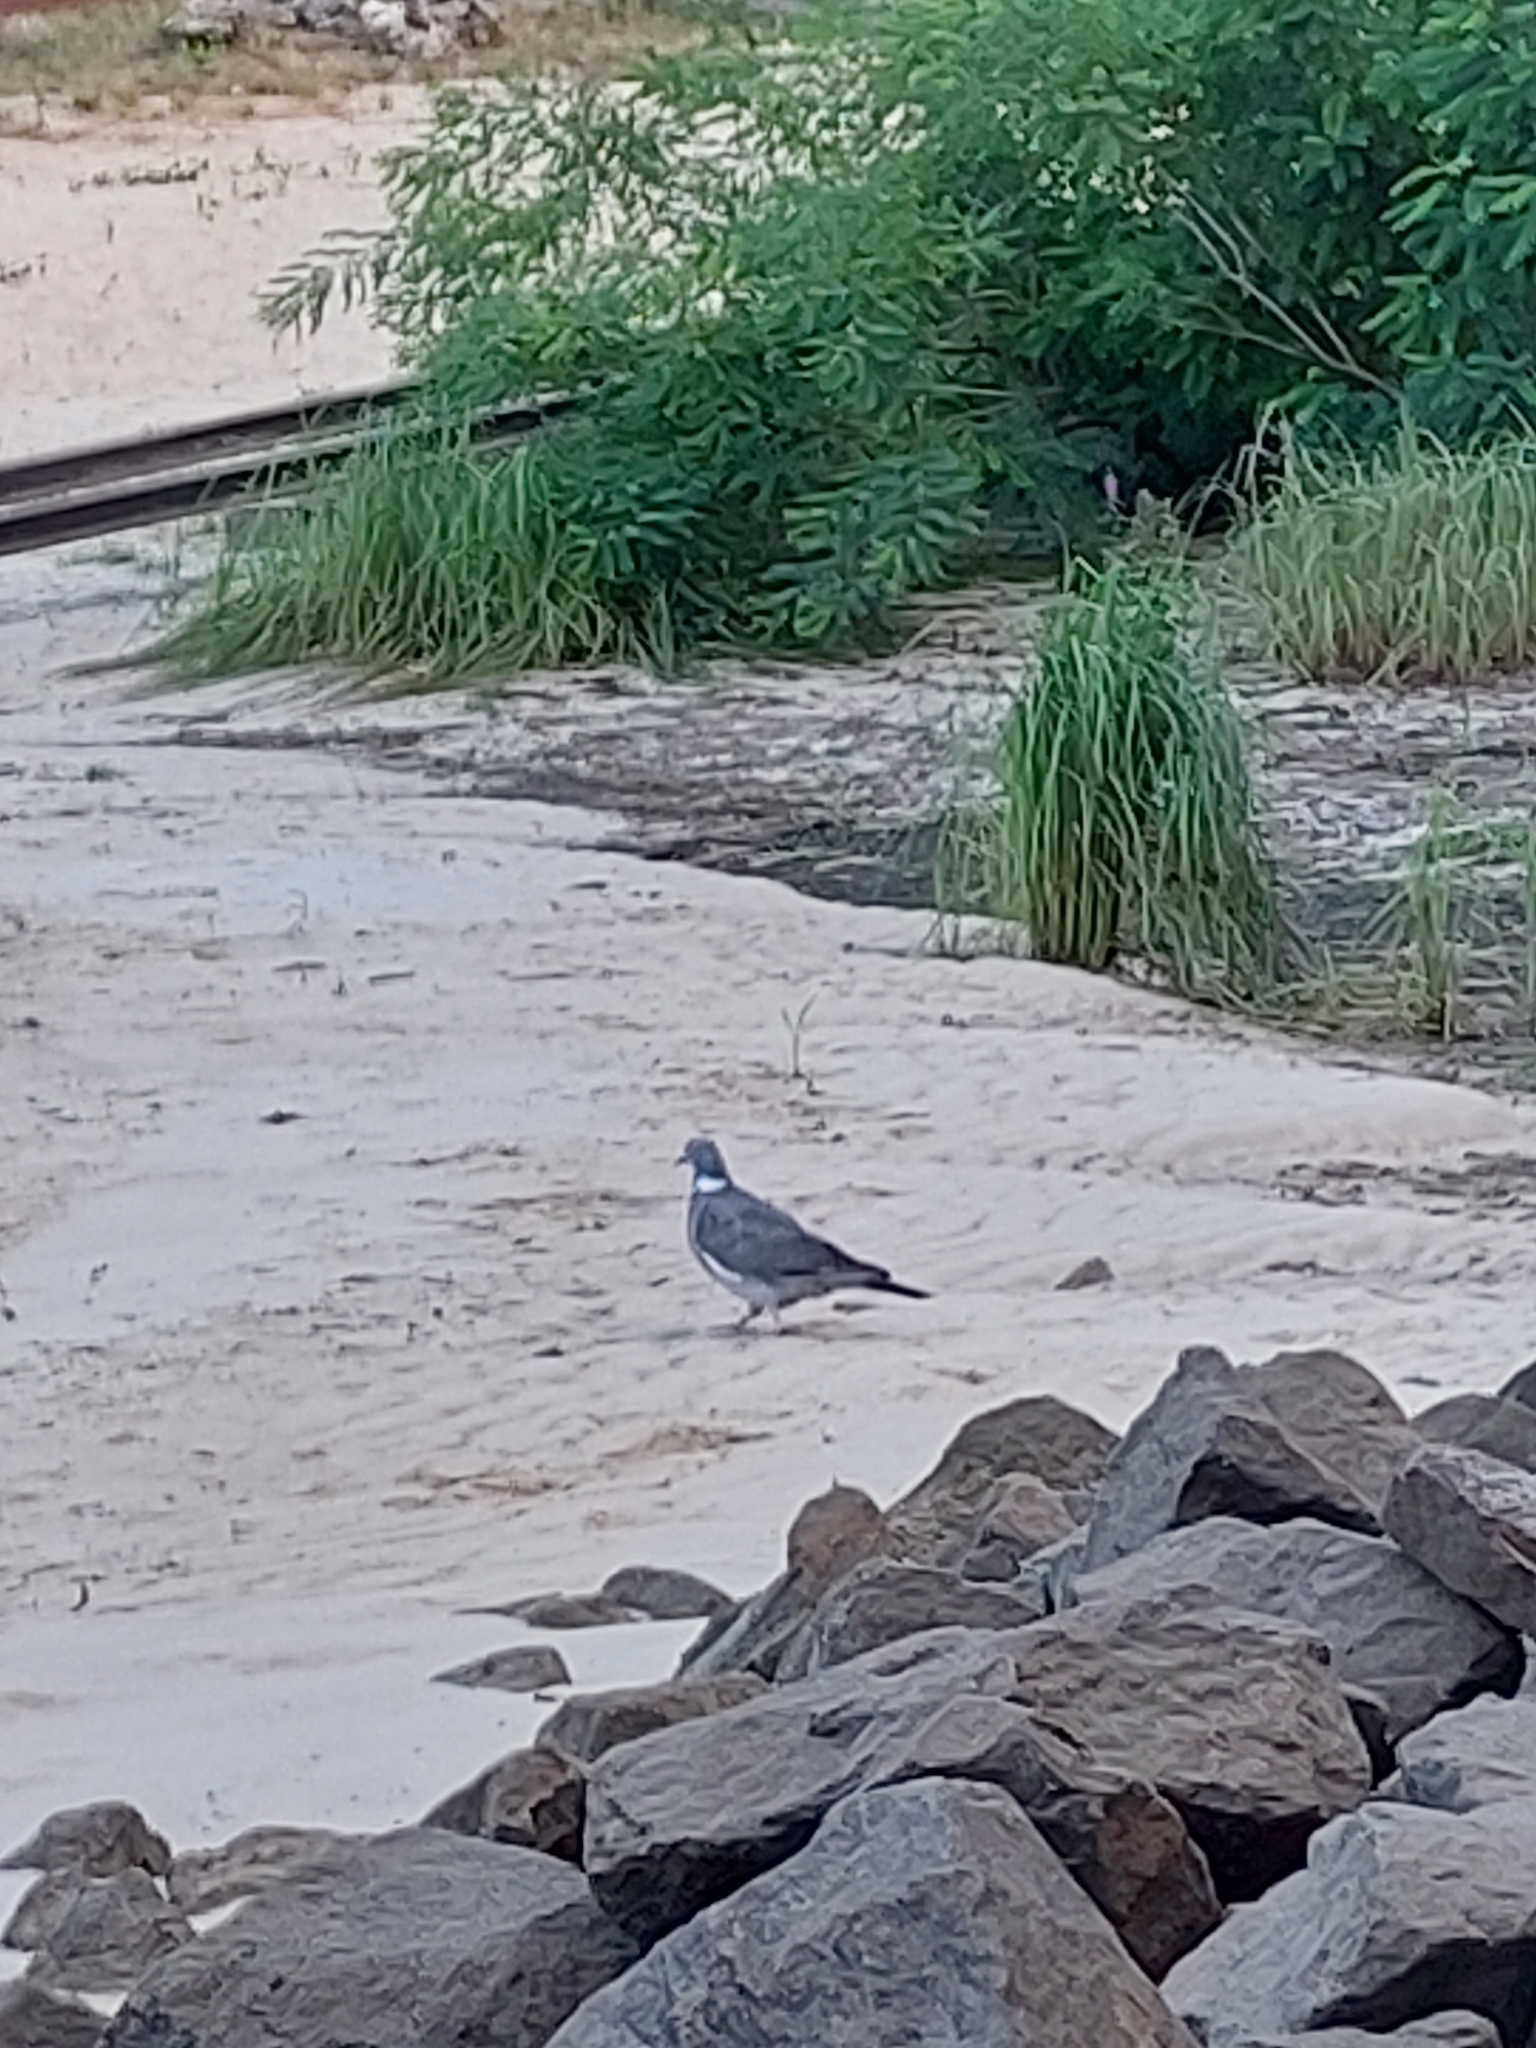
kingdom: Animalia
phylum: Chordata
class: Aves
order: Columbiformes
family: Columbidae
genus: Columba
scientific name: Columba palumbus
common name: Common wood pigeon
